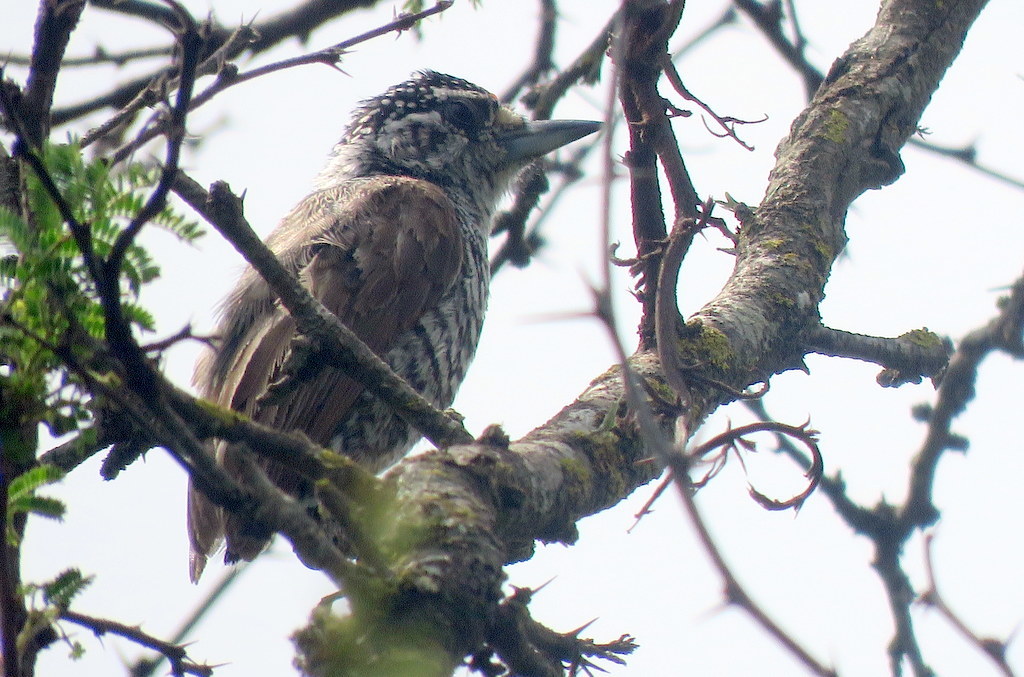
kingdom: Animalia
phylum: Chordata
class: Aves
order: Piciformes
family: Picidae
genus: Picumnus
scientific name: Picumnus cirratus
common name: White-barred piculet
